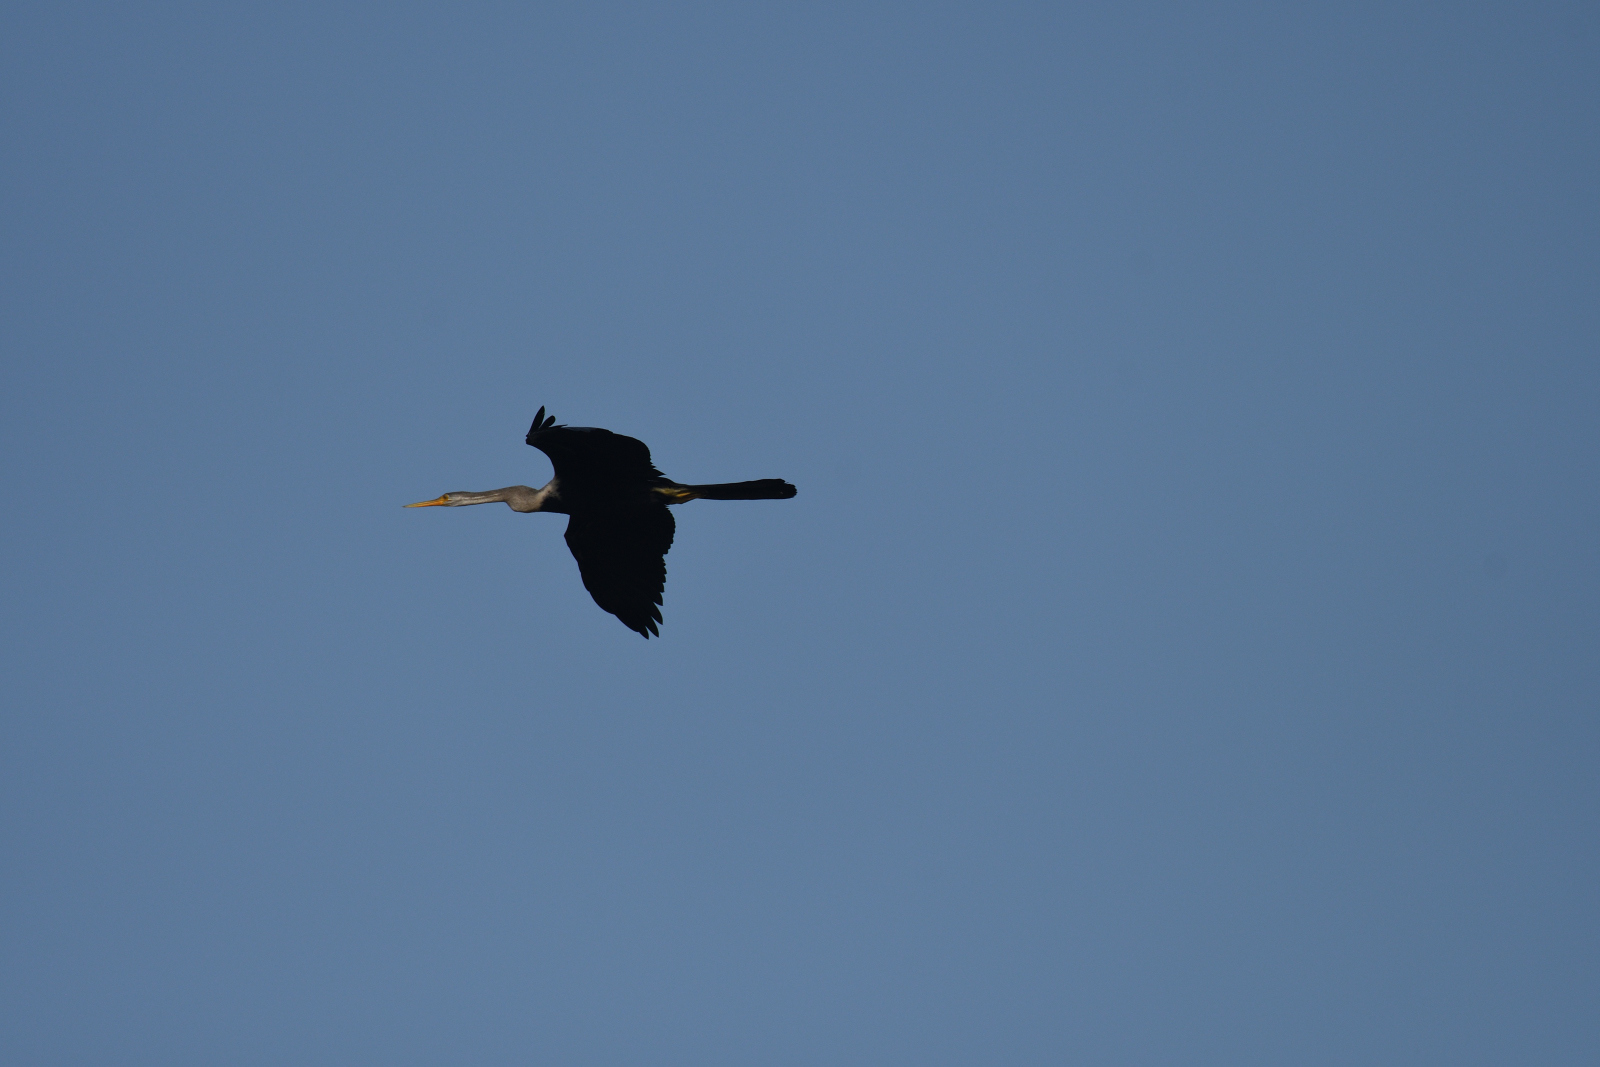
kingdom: Animalia
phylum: Chordata
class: Aves
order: Suliformes
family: Anhingidae
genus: Anhinga
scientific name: Anhinga melanogaster
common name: Oriental darter
